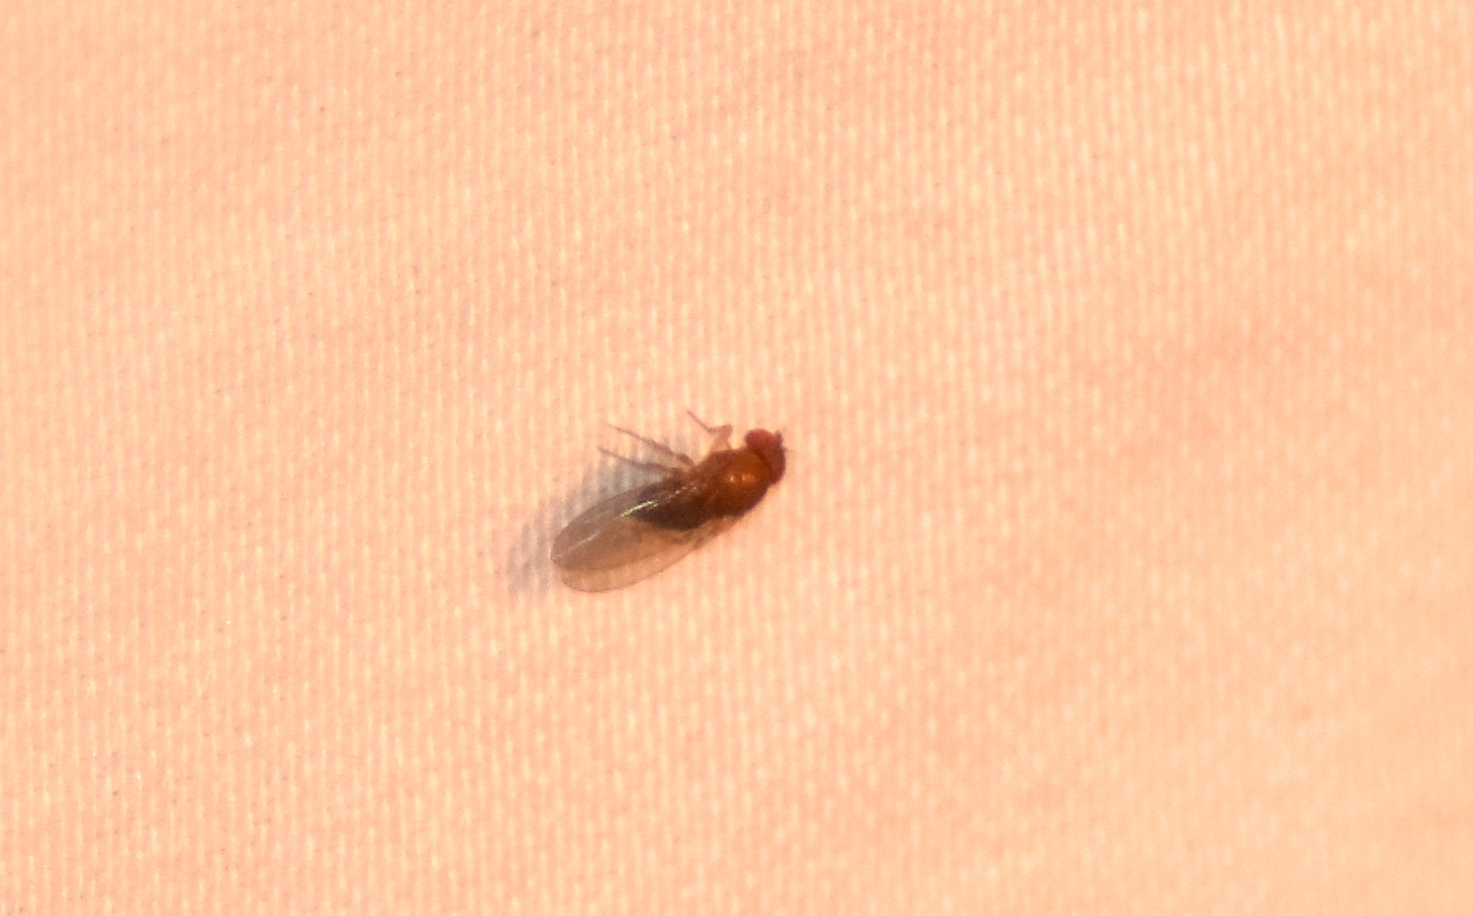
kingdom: Animalia
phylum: Arthropoda
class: Insecta
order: Diptera
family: Drosophilidae
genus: Drosophila
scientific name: Drosophila suzukii
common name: Spotted-wing drosophila
